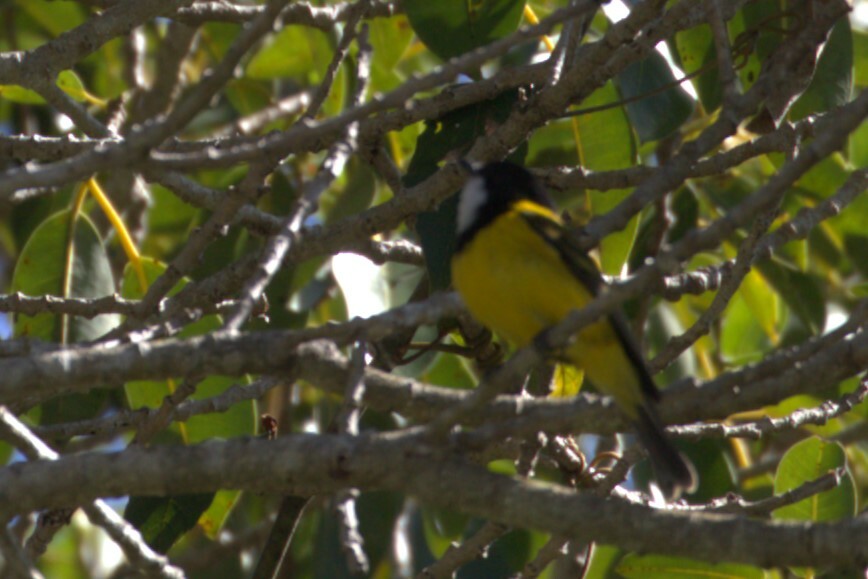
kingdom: Animalia
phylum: Chordata
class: Aves
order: Passeriformes
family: Pachycephalidae
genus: Pachycephala
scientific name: Pachycephala pectoralis
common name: Australian golden whistler
